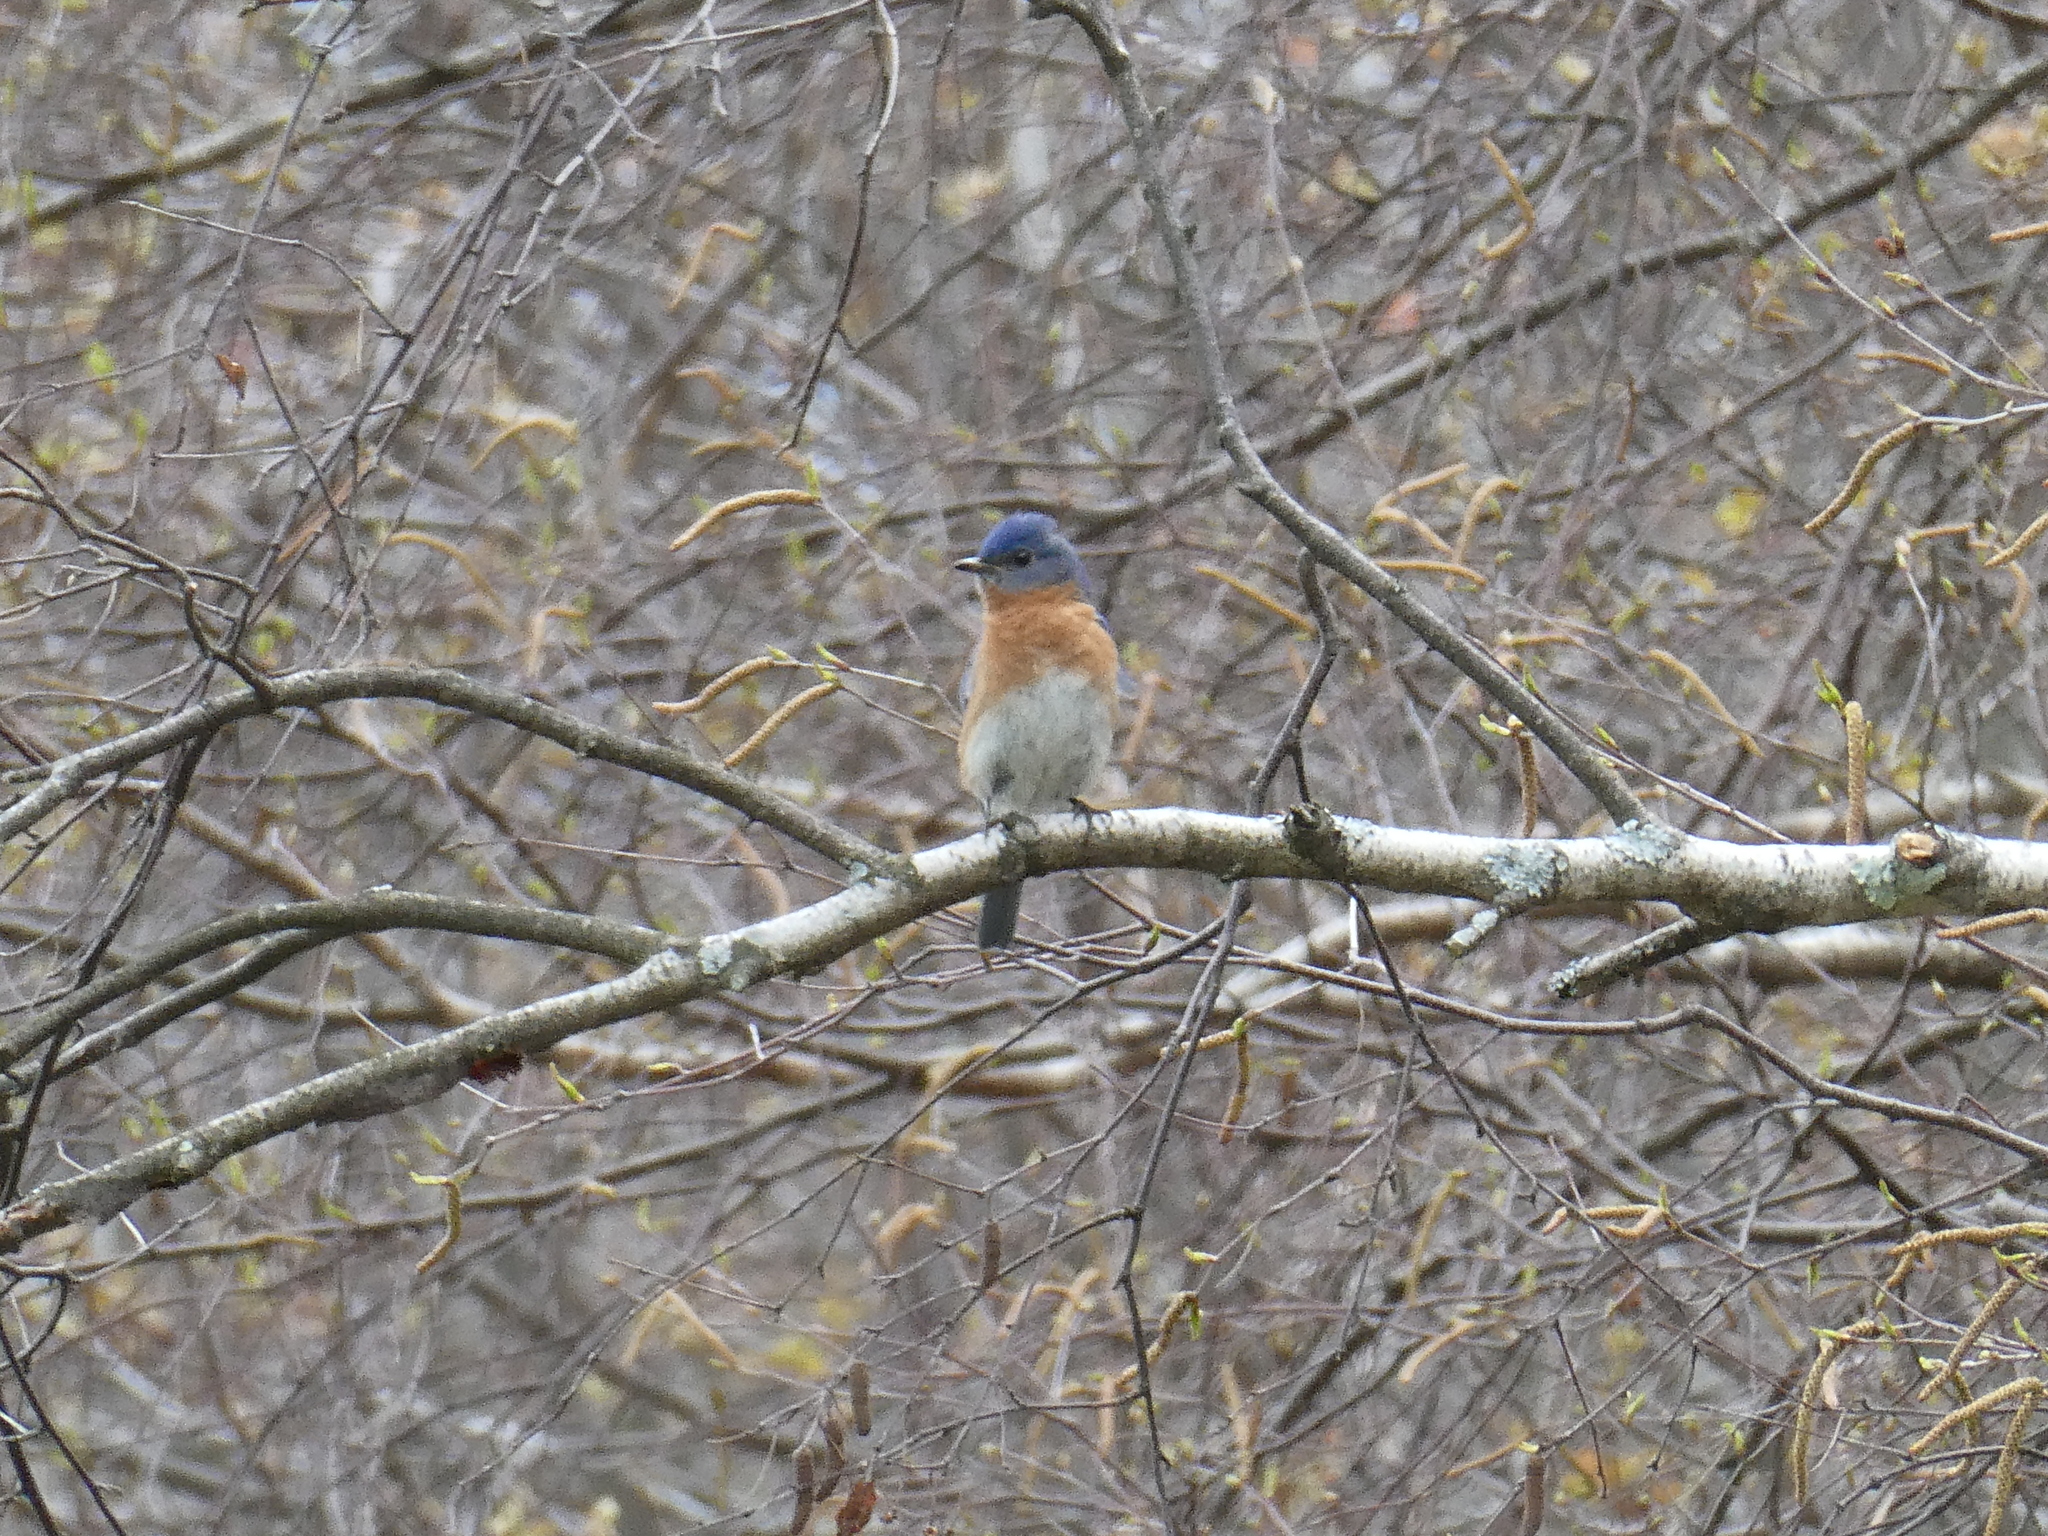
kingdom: Animalia
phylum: Chordata
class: Aves
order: Passeriformes
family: Turdidae
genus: Sialia
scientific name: Sialia sialis
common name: Eastern bluebird
